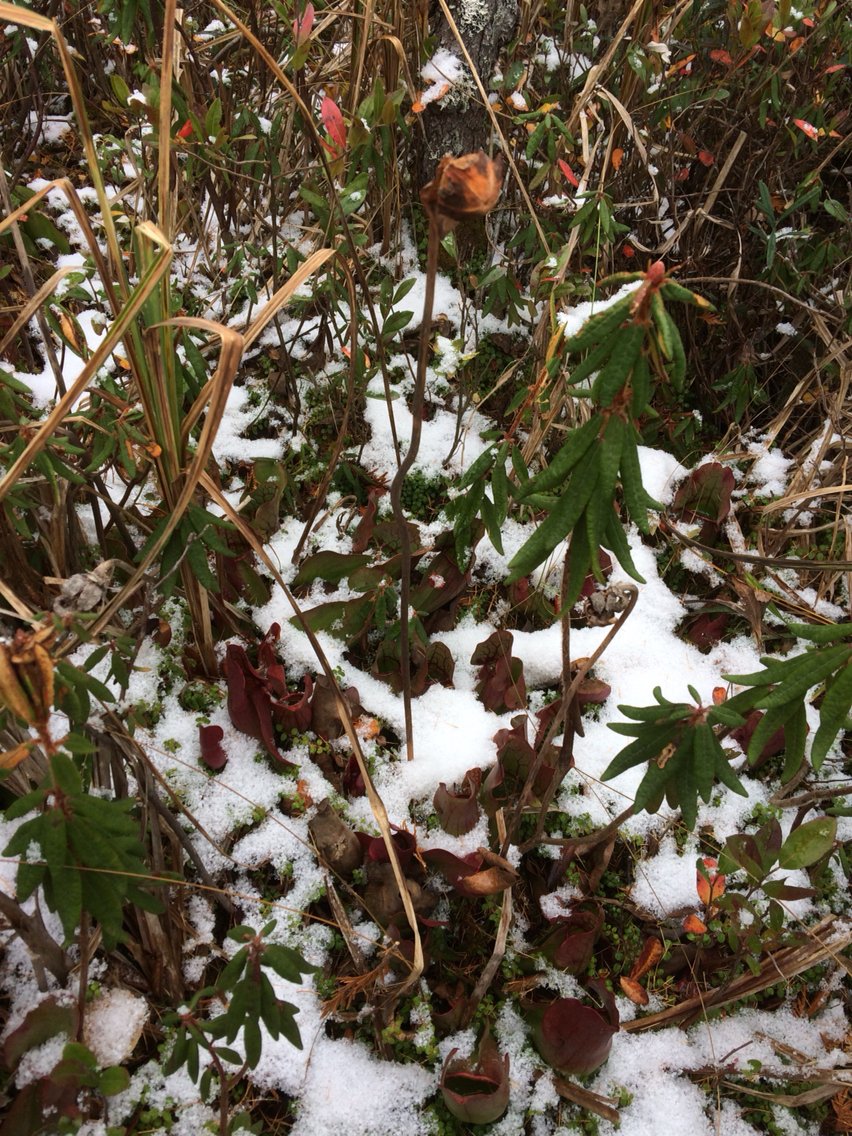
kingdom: Plantae
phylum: Tracheophyta
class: Magnoliopsida
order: Ericales
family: Sarraceniaceae
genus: Sarracenia
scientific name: Sarracenia purpurea
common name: Pitcherplant
